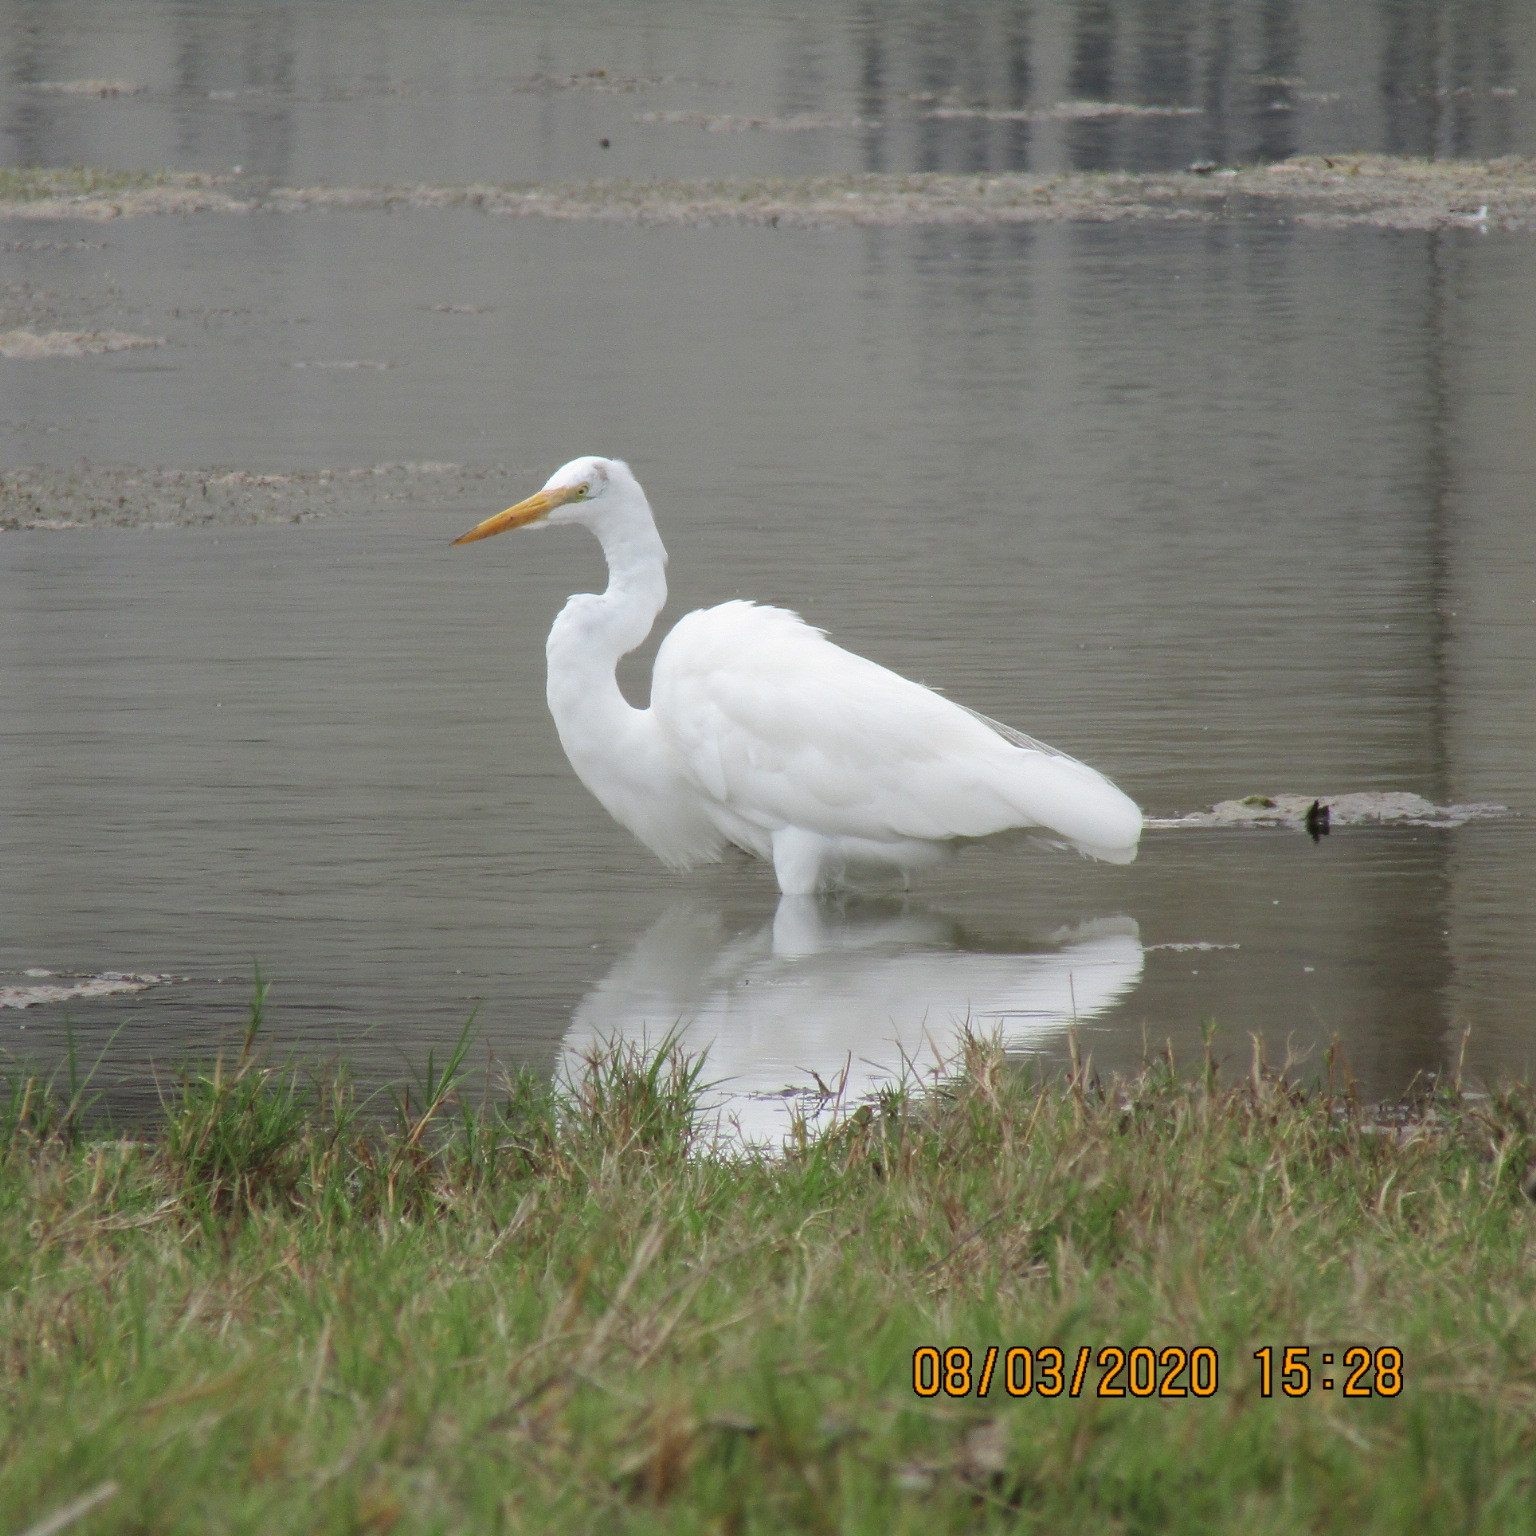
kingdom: Animalia
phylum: Chordata
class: Aves
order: Pelecaniformes
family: Ardeidae
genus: Ardea
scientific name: Ardea alba
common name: Great egret
